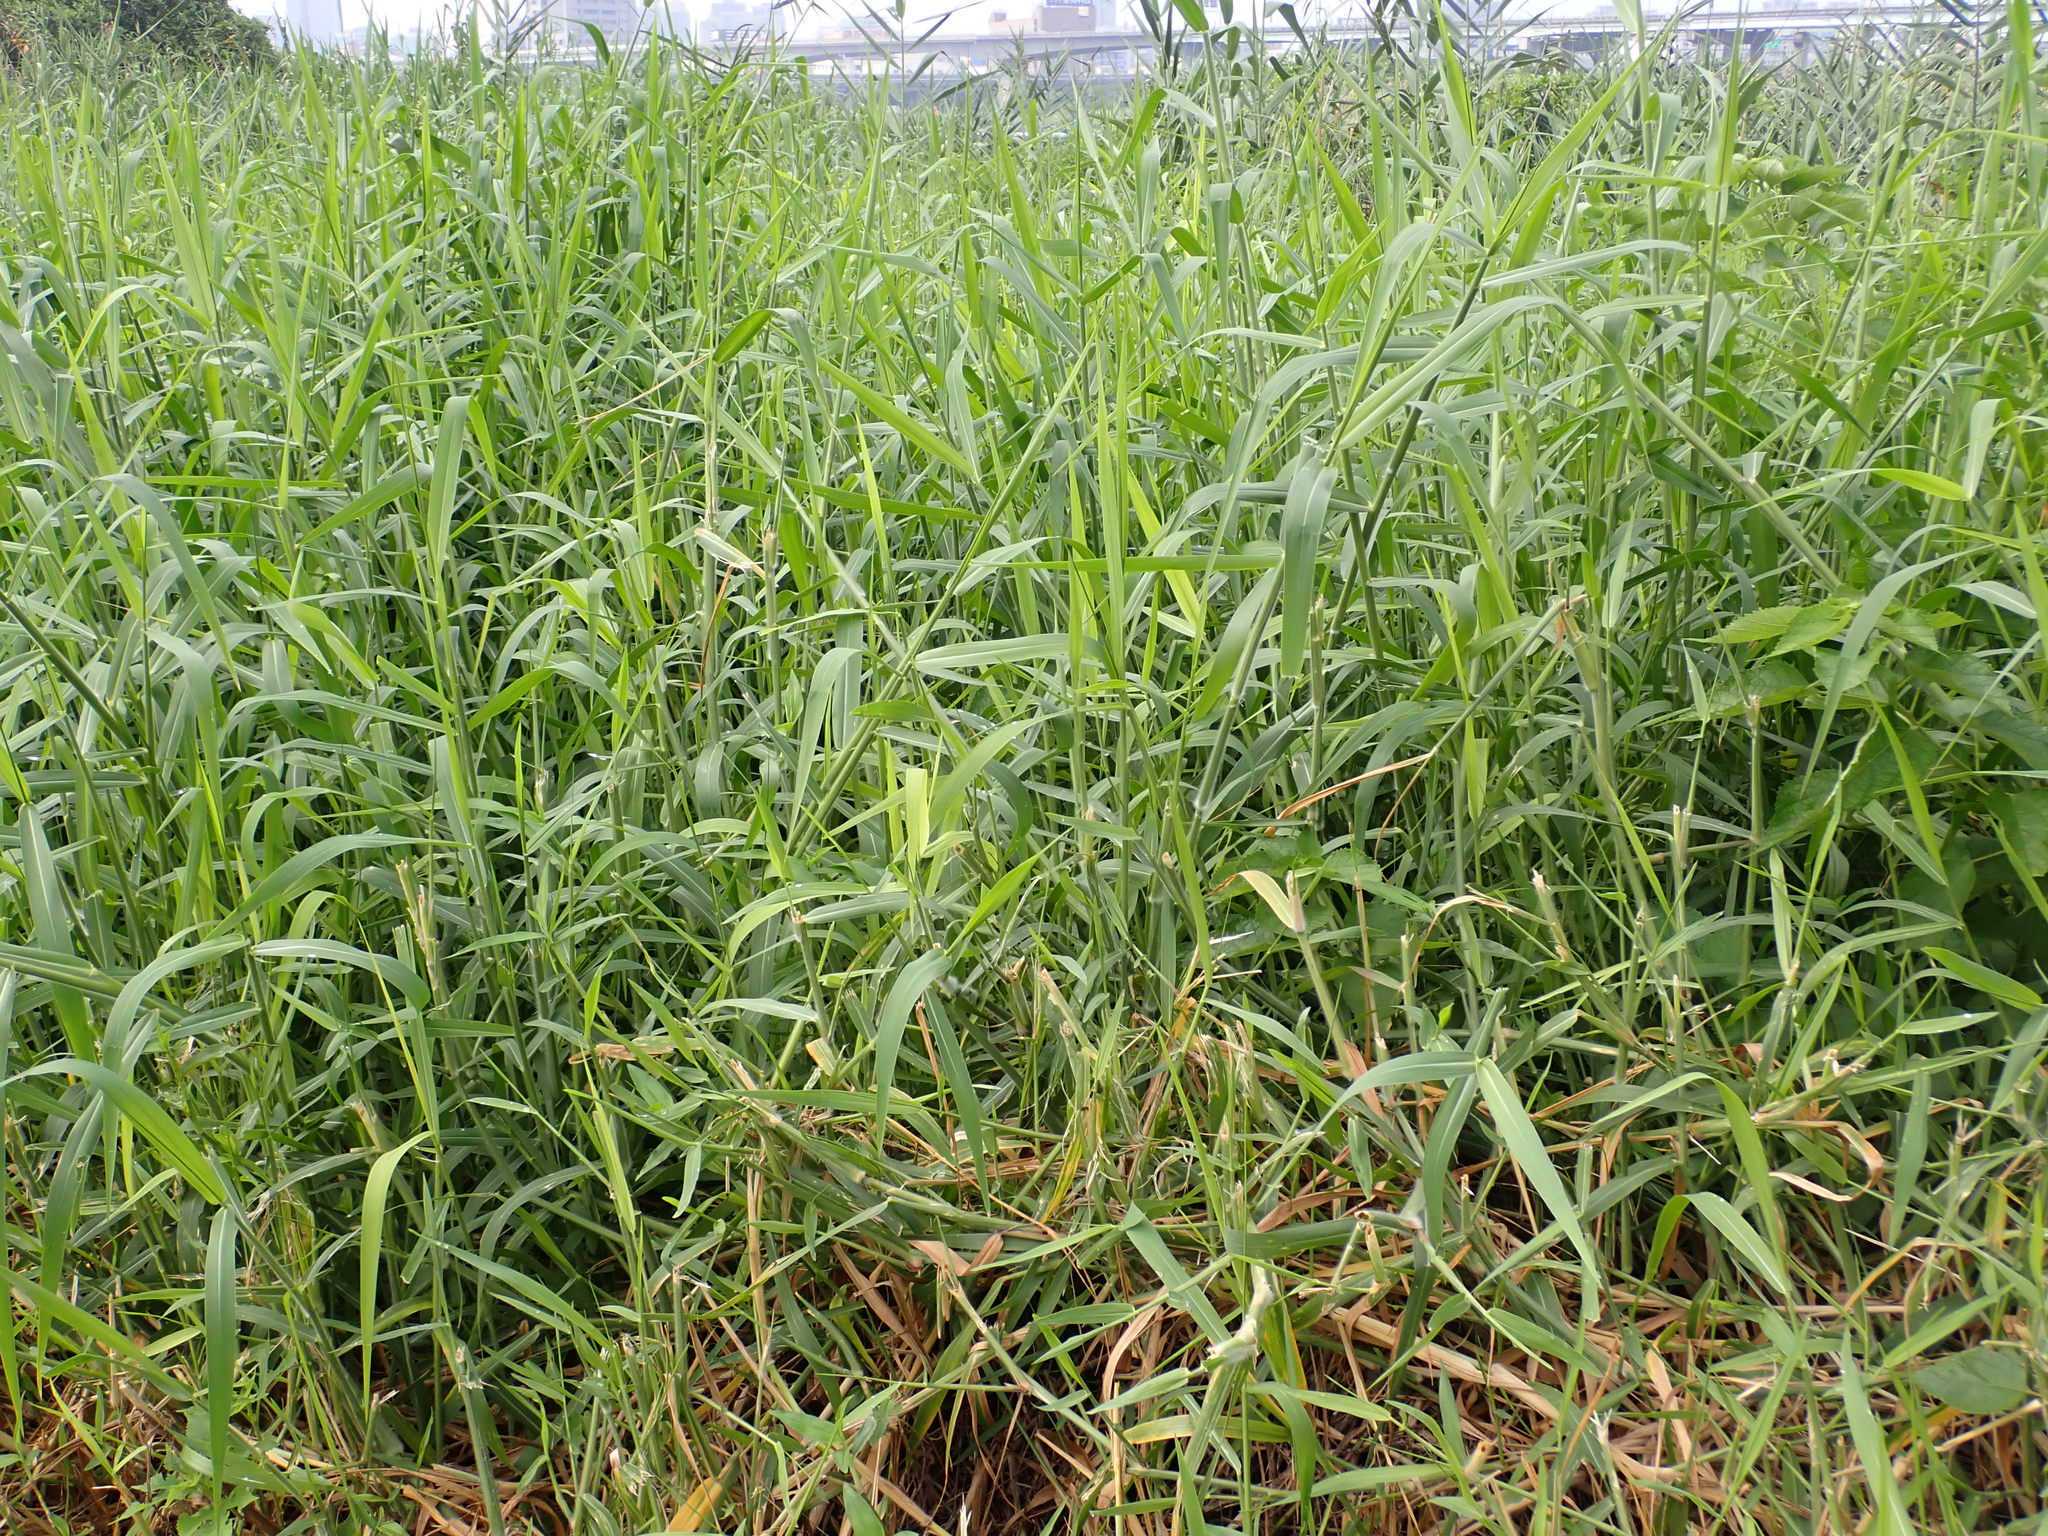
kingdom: Plantae
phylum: Tracheophyta
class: Liliopsida
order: Poales
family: Poaceae
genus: Urochloa
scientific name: Urochloa mutica
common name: Para grass
